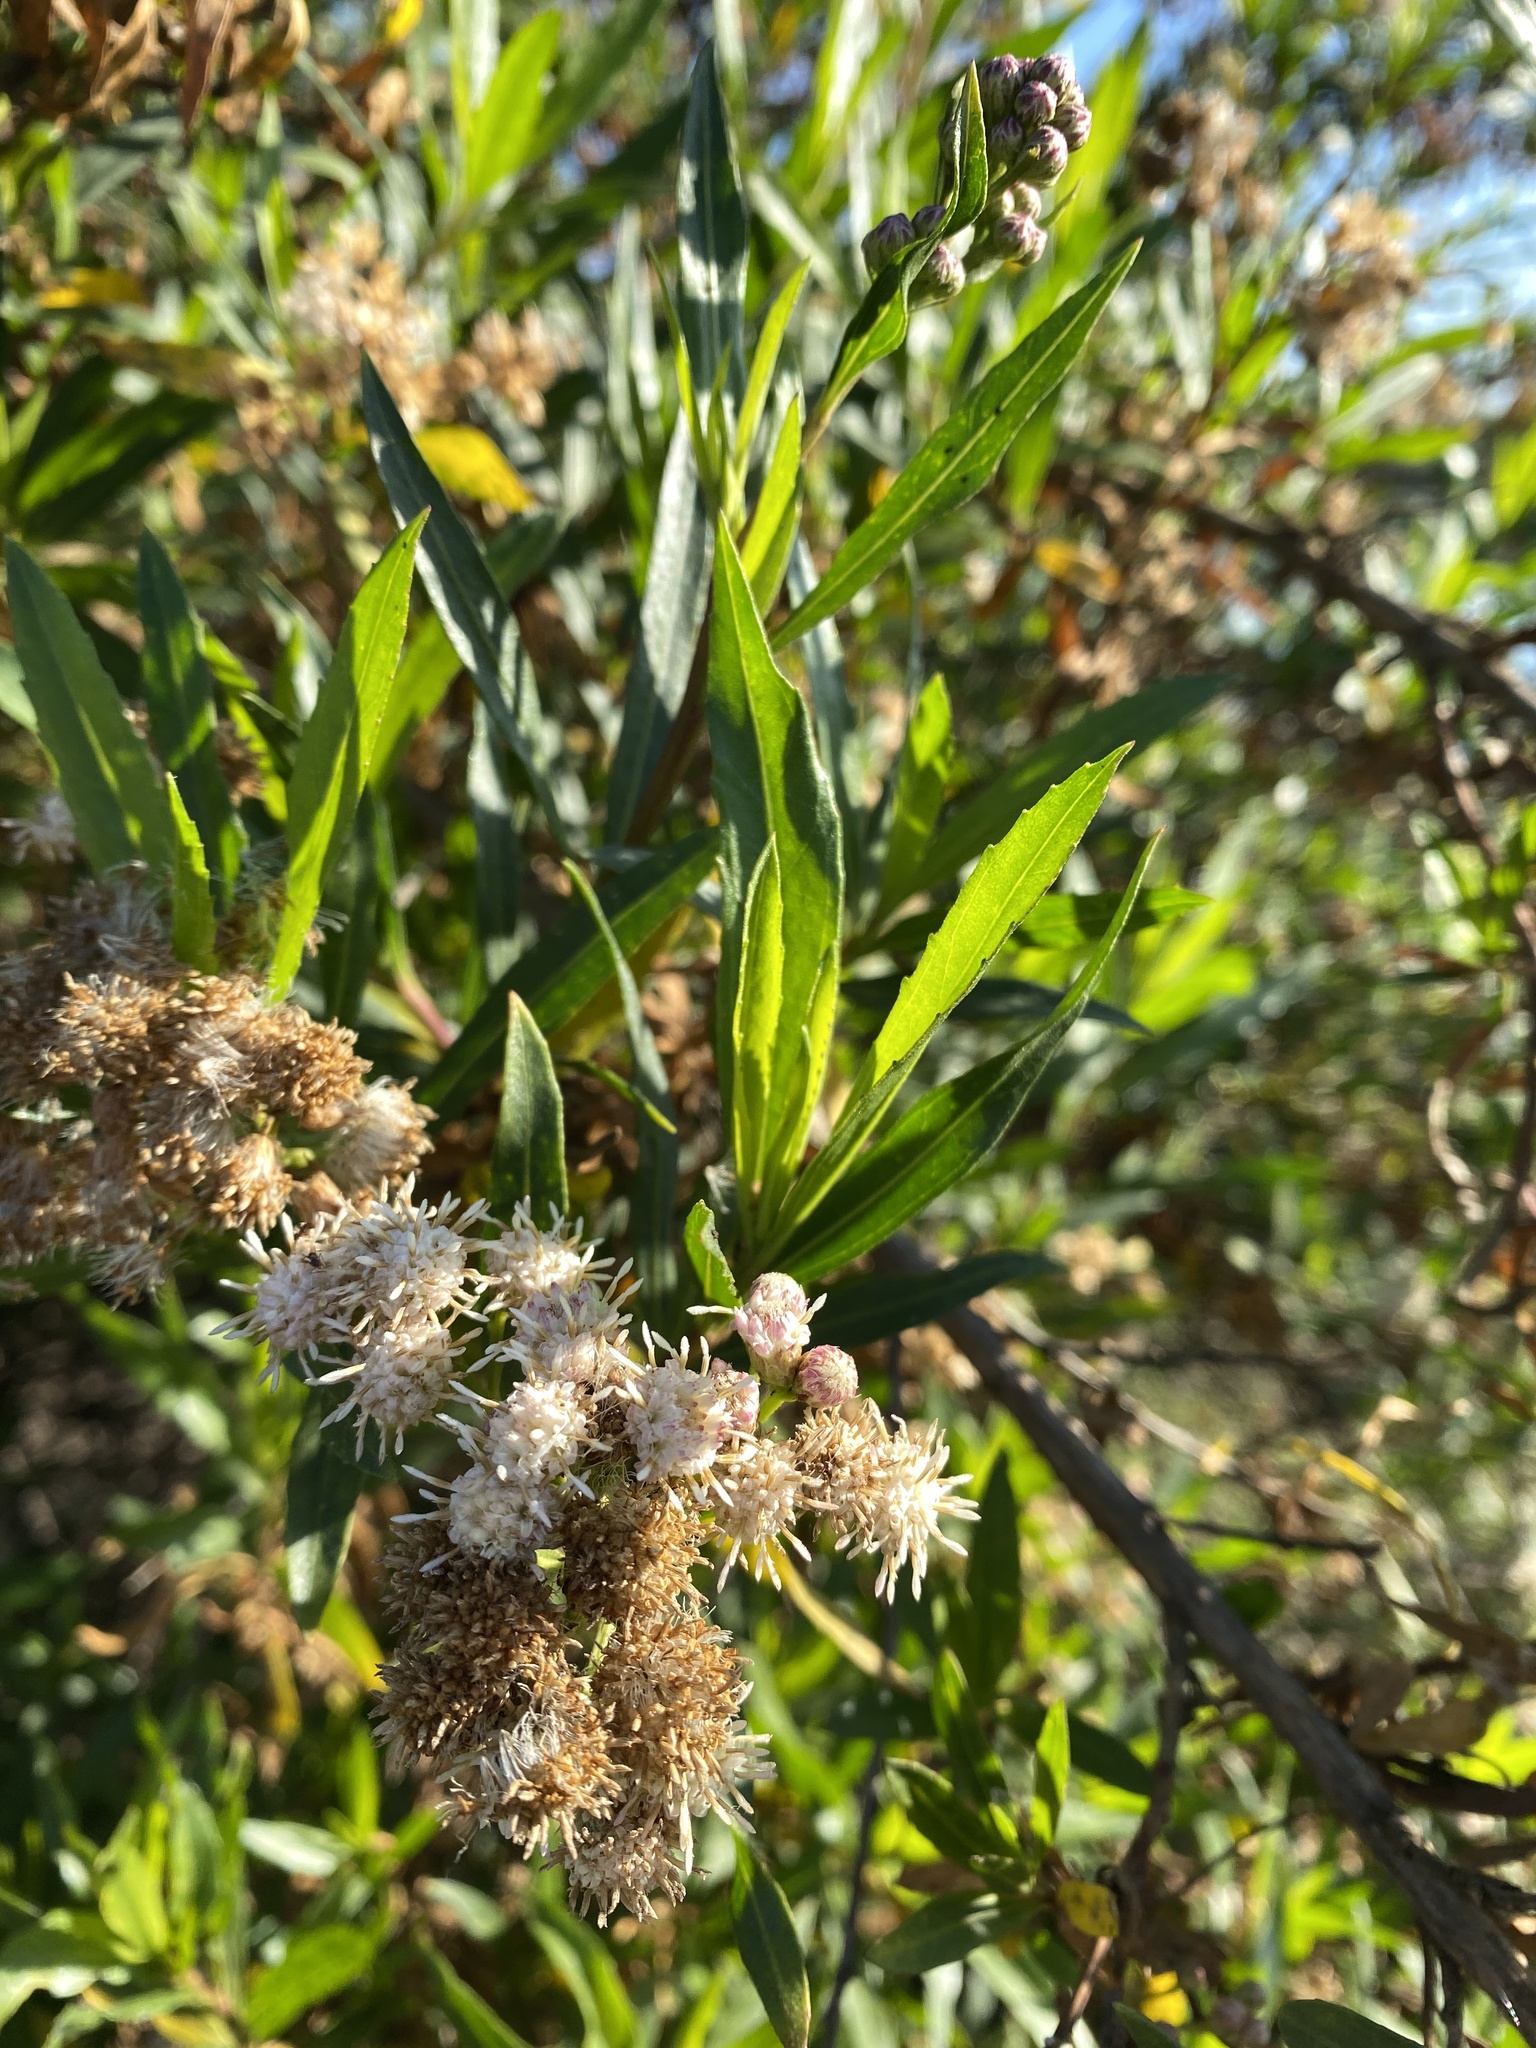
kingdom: Plantae
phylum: Tracheophyta
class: Magnoliopsida
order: Asterales
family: Asteraceae
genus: Baccharis
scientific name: Baccharis salicifolia
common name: Sticky baccharis
